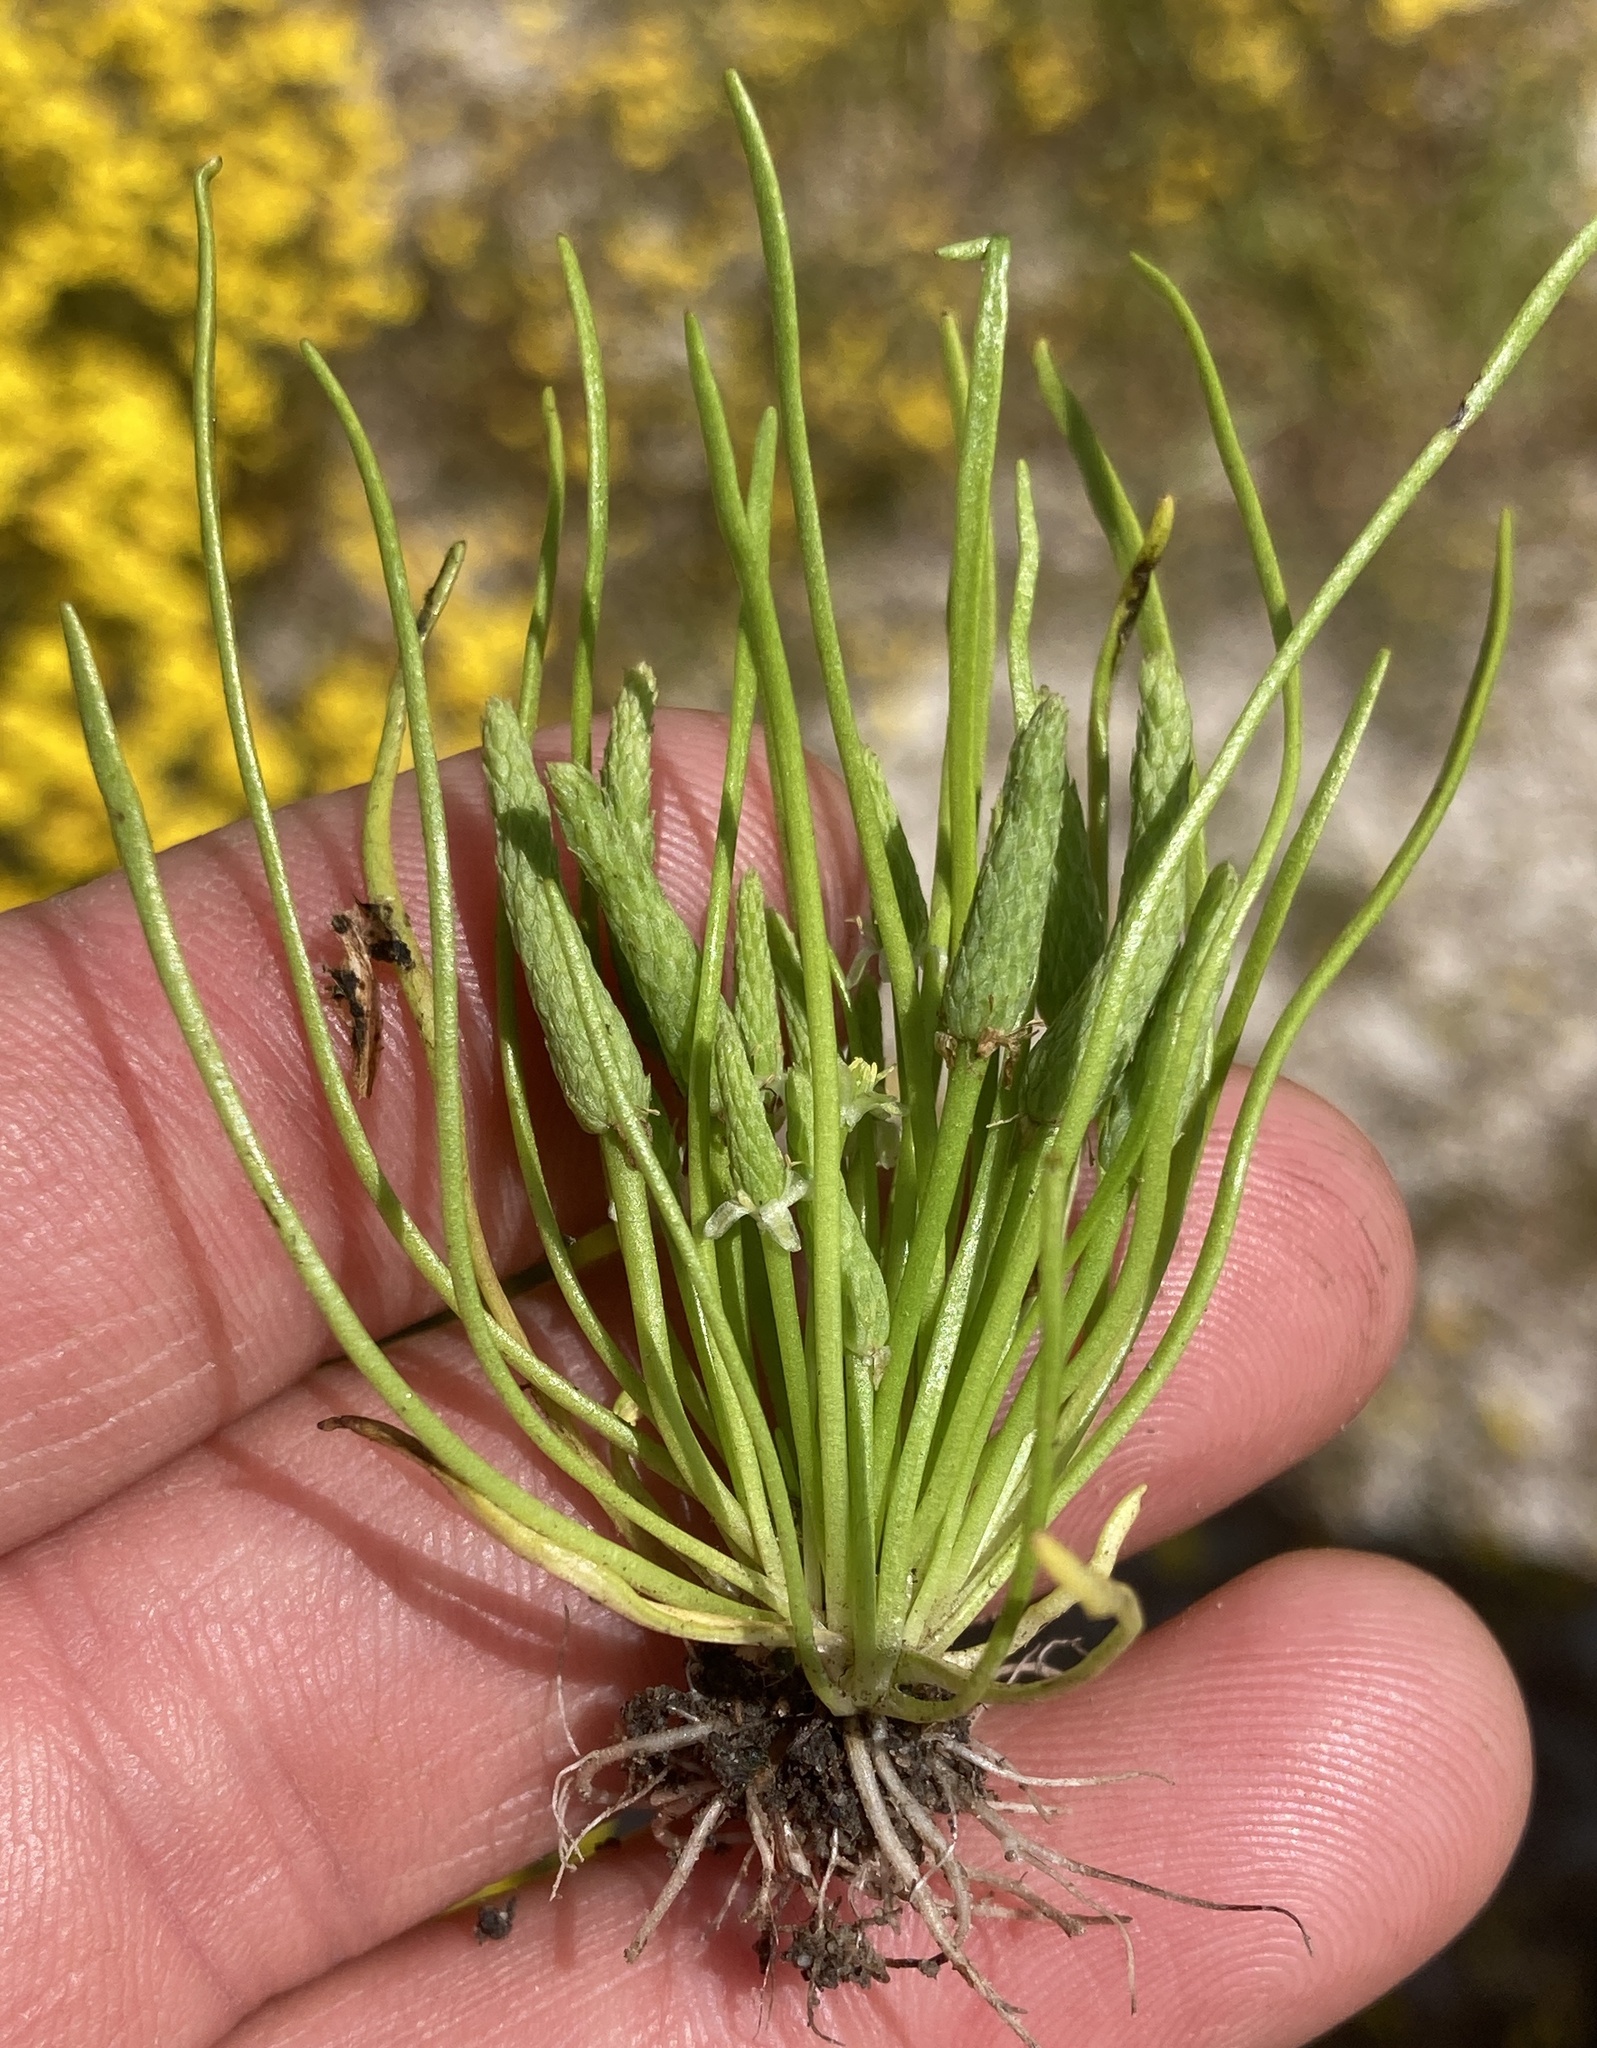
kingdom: Plantae
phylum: Tracheophyta
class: Magnoliopsida
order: Ranunculales
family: Ranunculaceae
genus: Myosurus
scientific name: Myosurus minimus
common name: Mousetail
